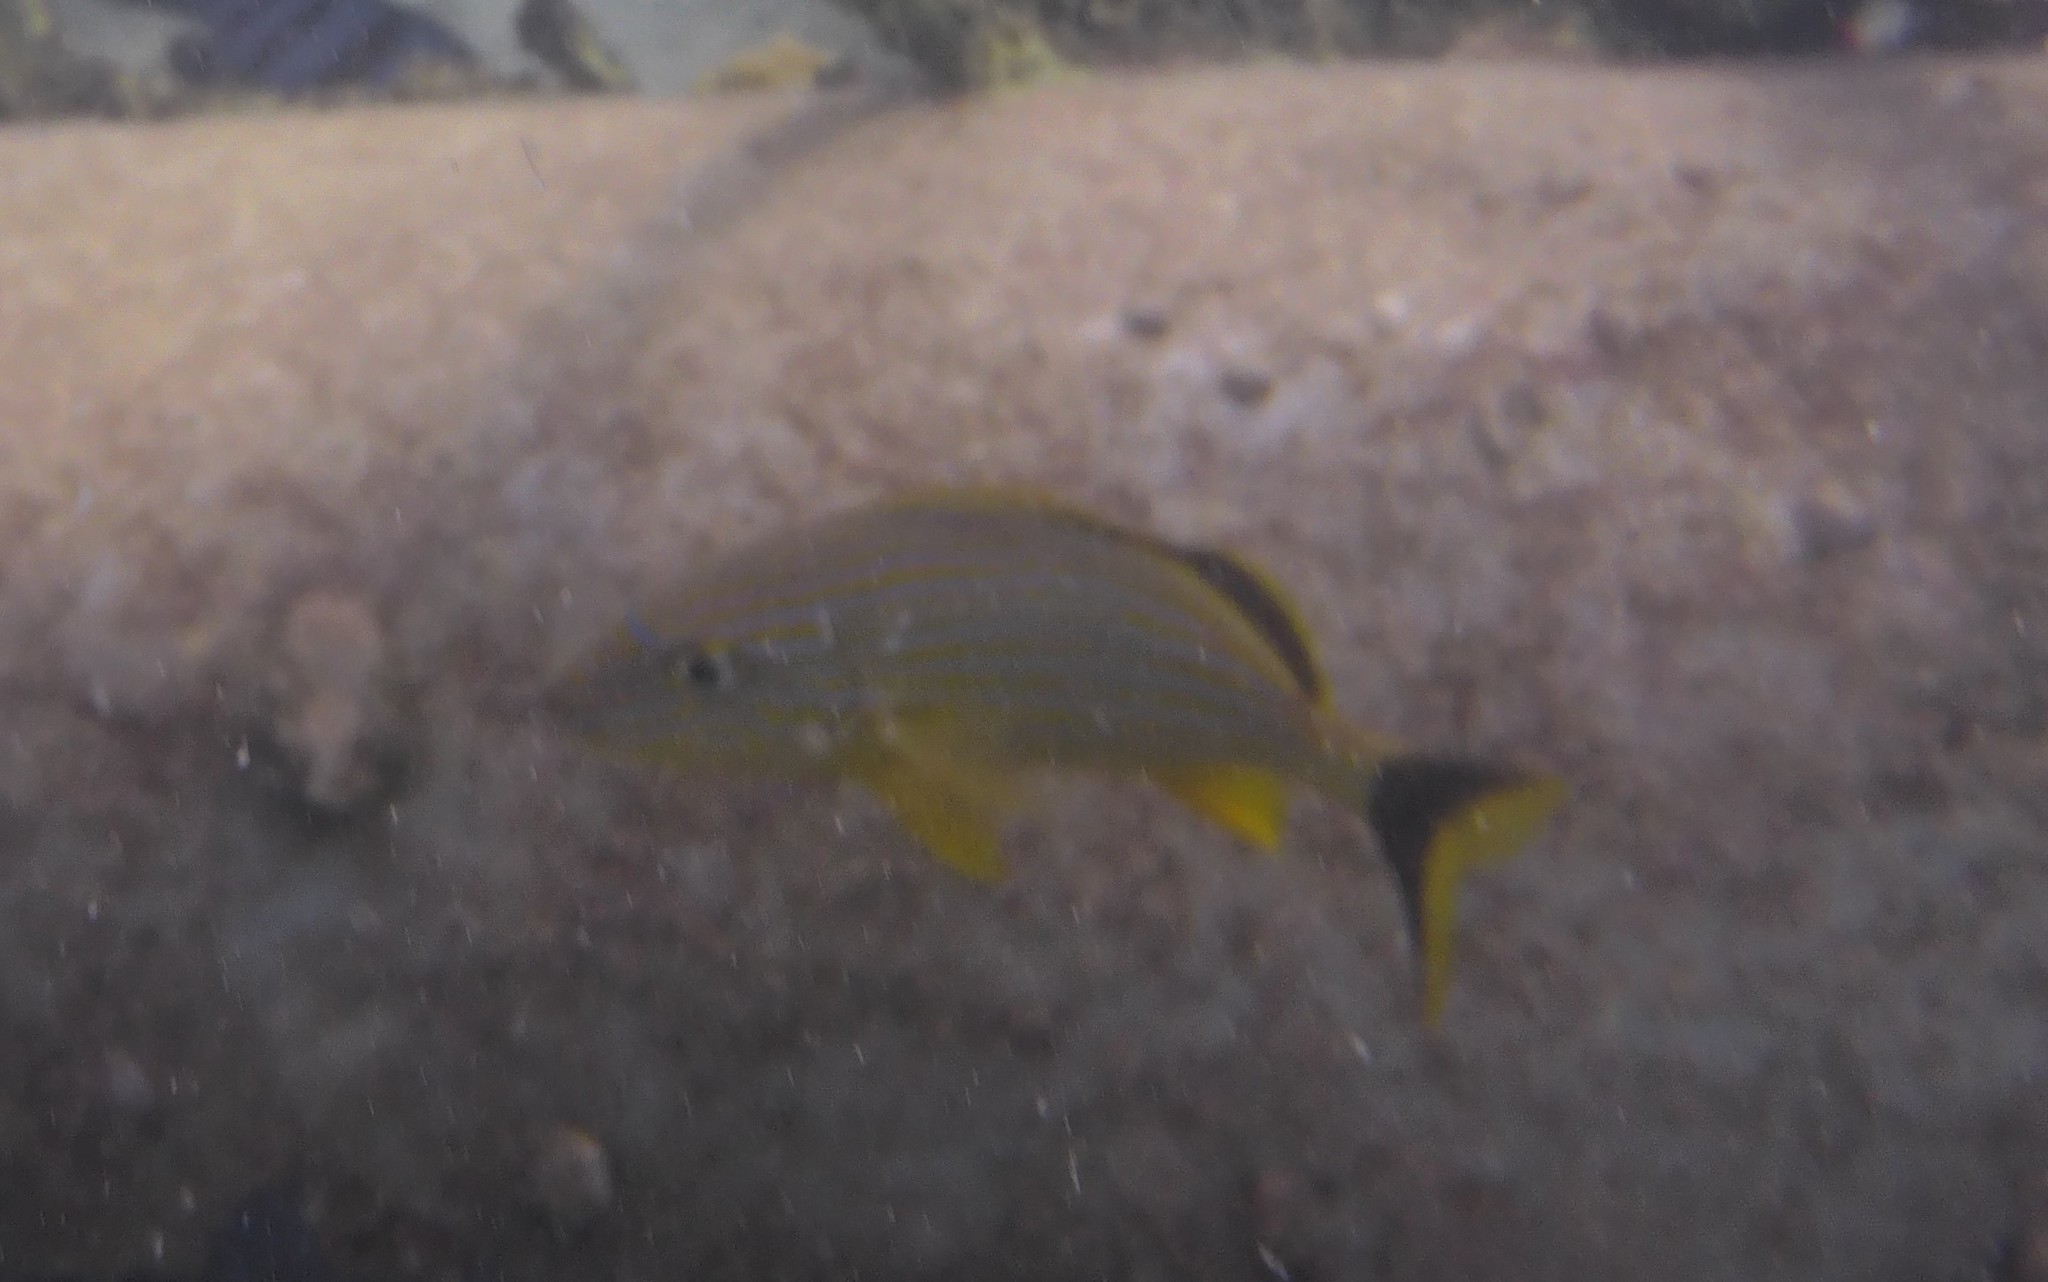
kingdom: Animalia
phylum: Chordata
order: Perciformes
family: Haemulidae
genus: Haemulon
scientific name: Haemulon sciurus
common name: Bluestriped grunt
